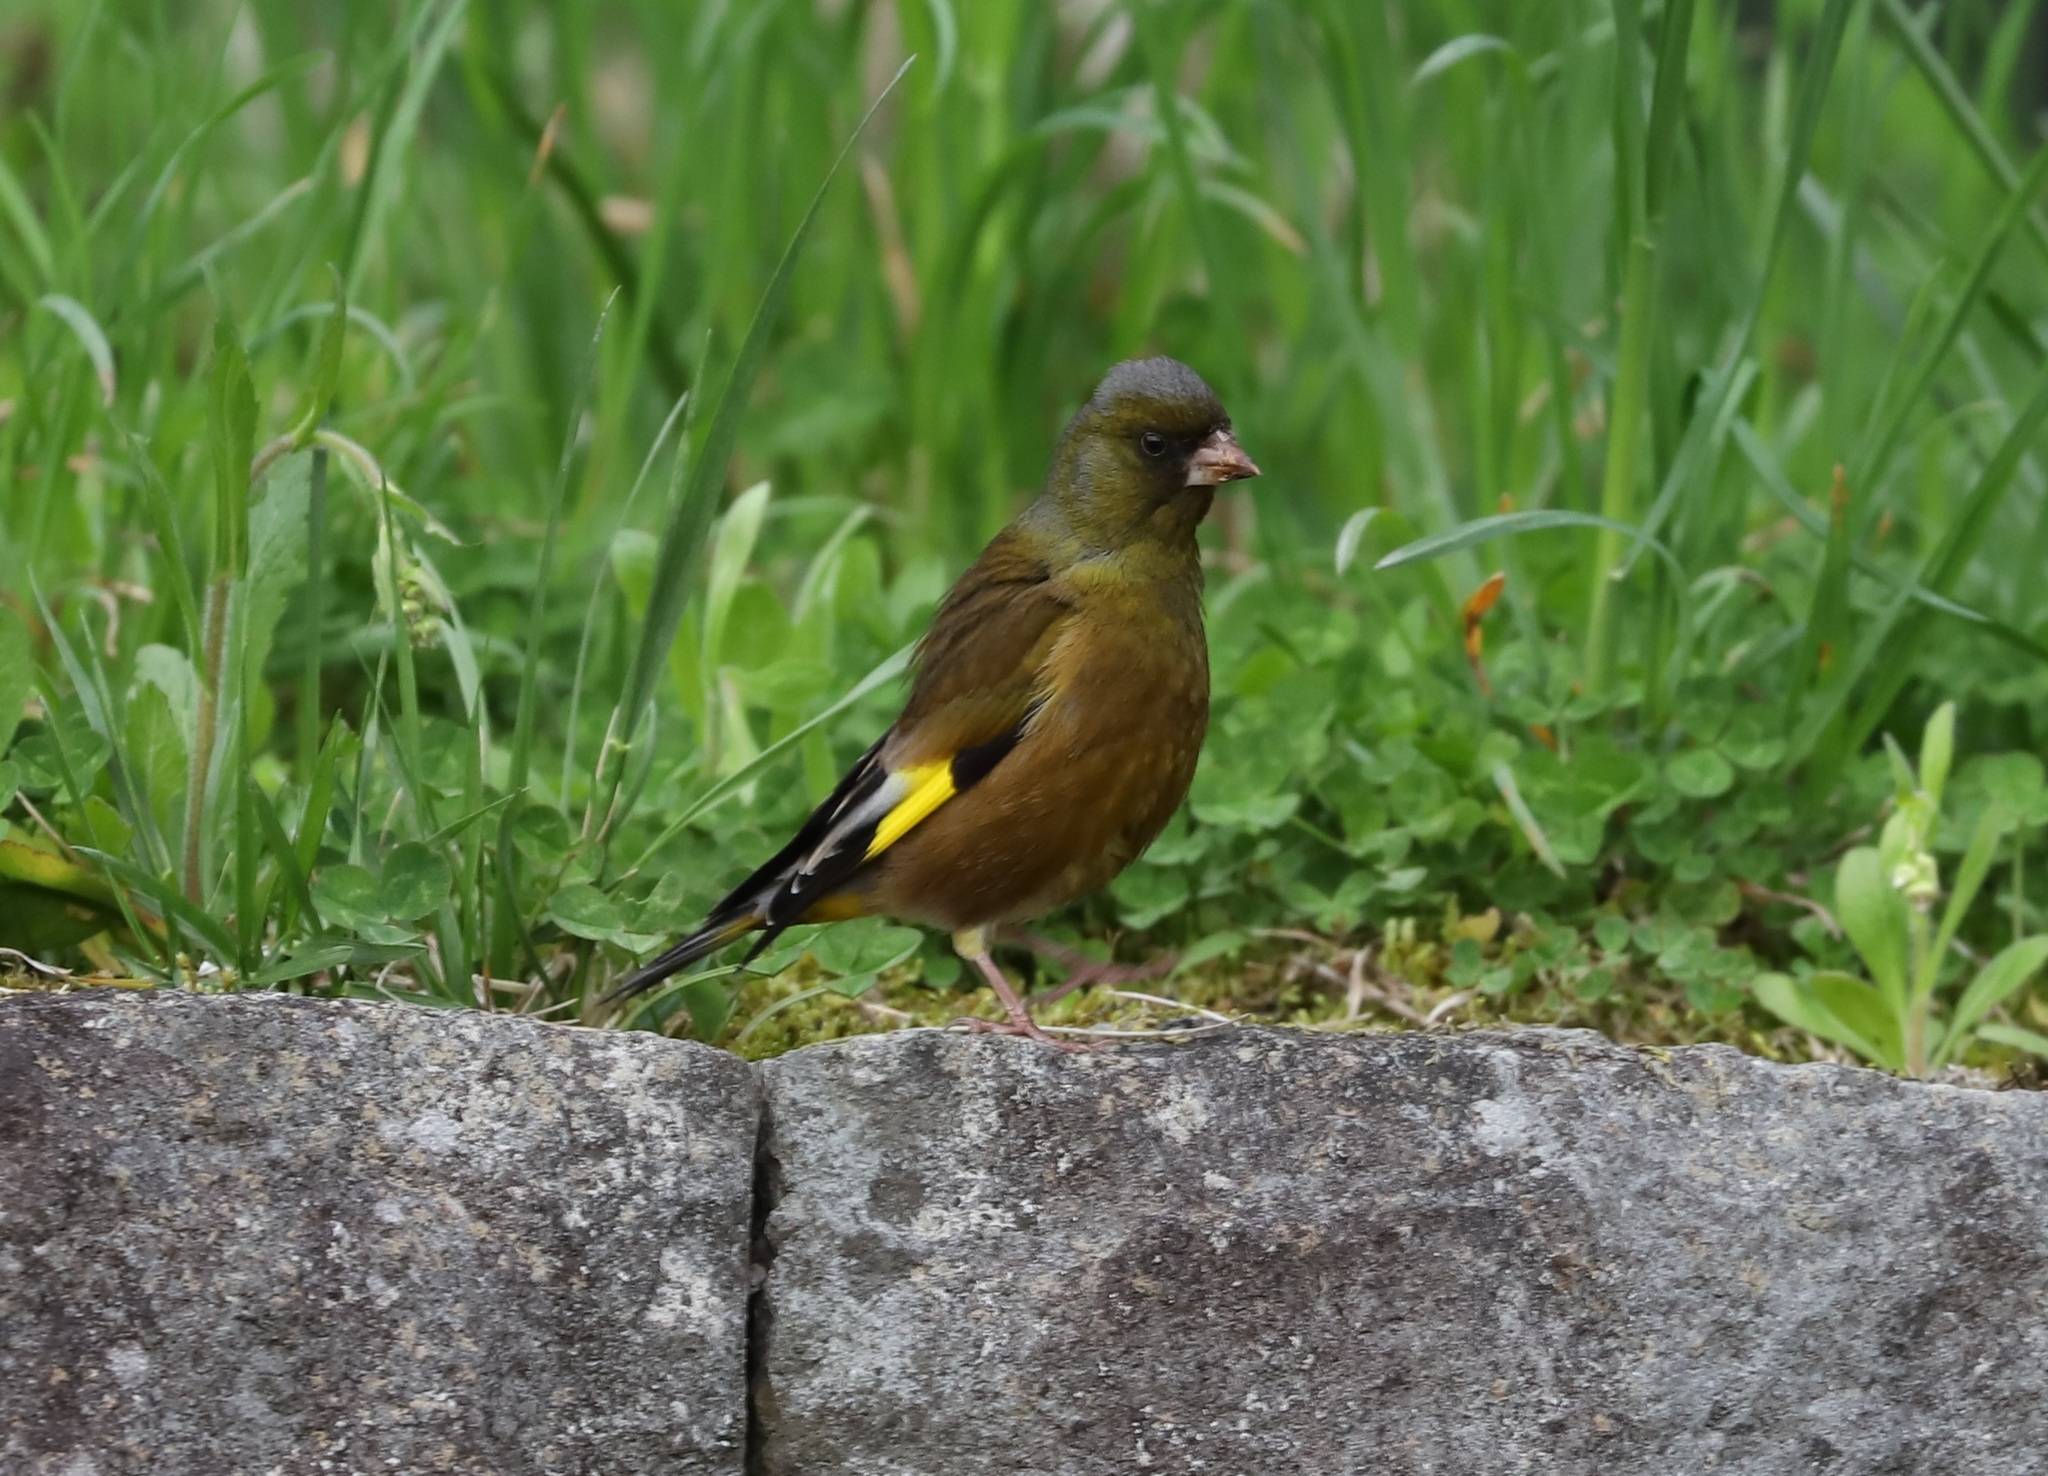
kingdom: Plantae
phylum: Tracheophyta
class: Liliopsida
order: Poales
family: Poaceae
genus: Chloris
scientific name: Chloris sinica
